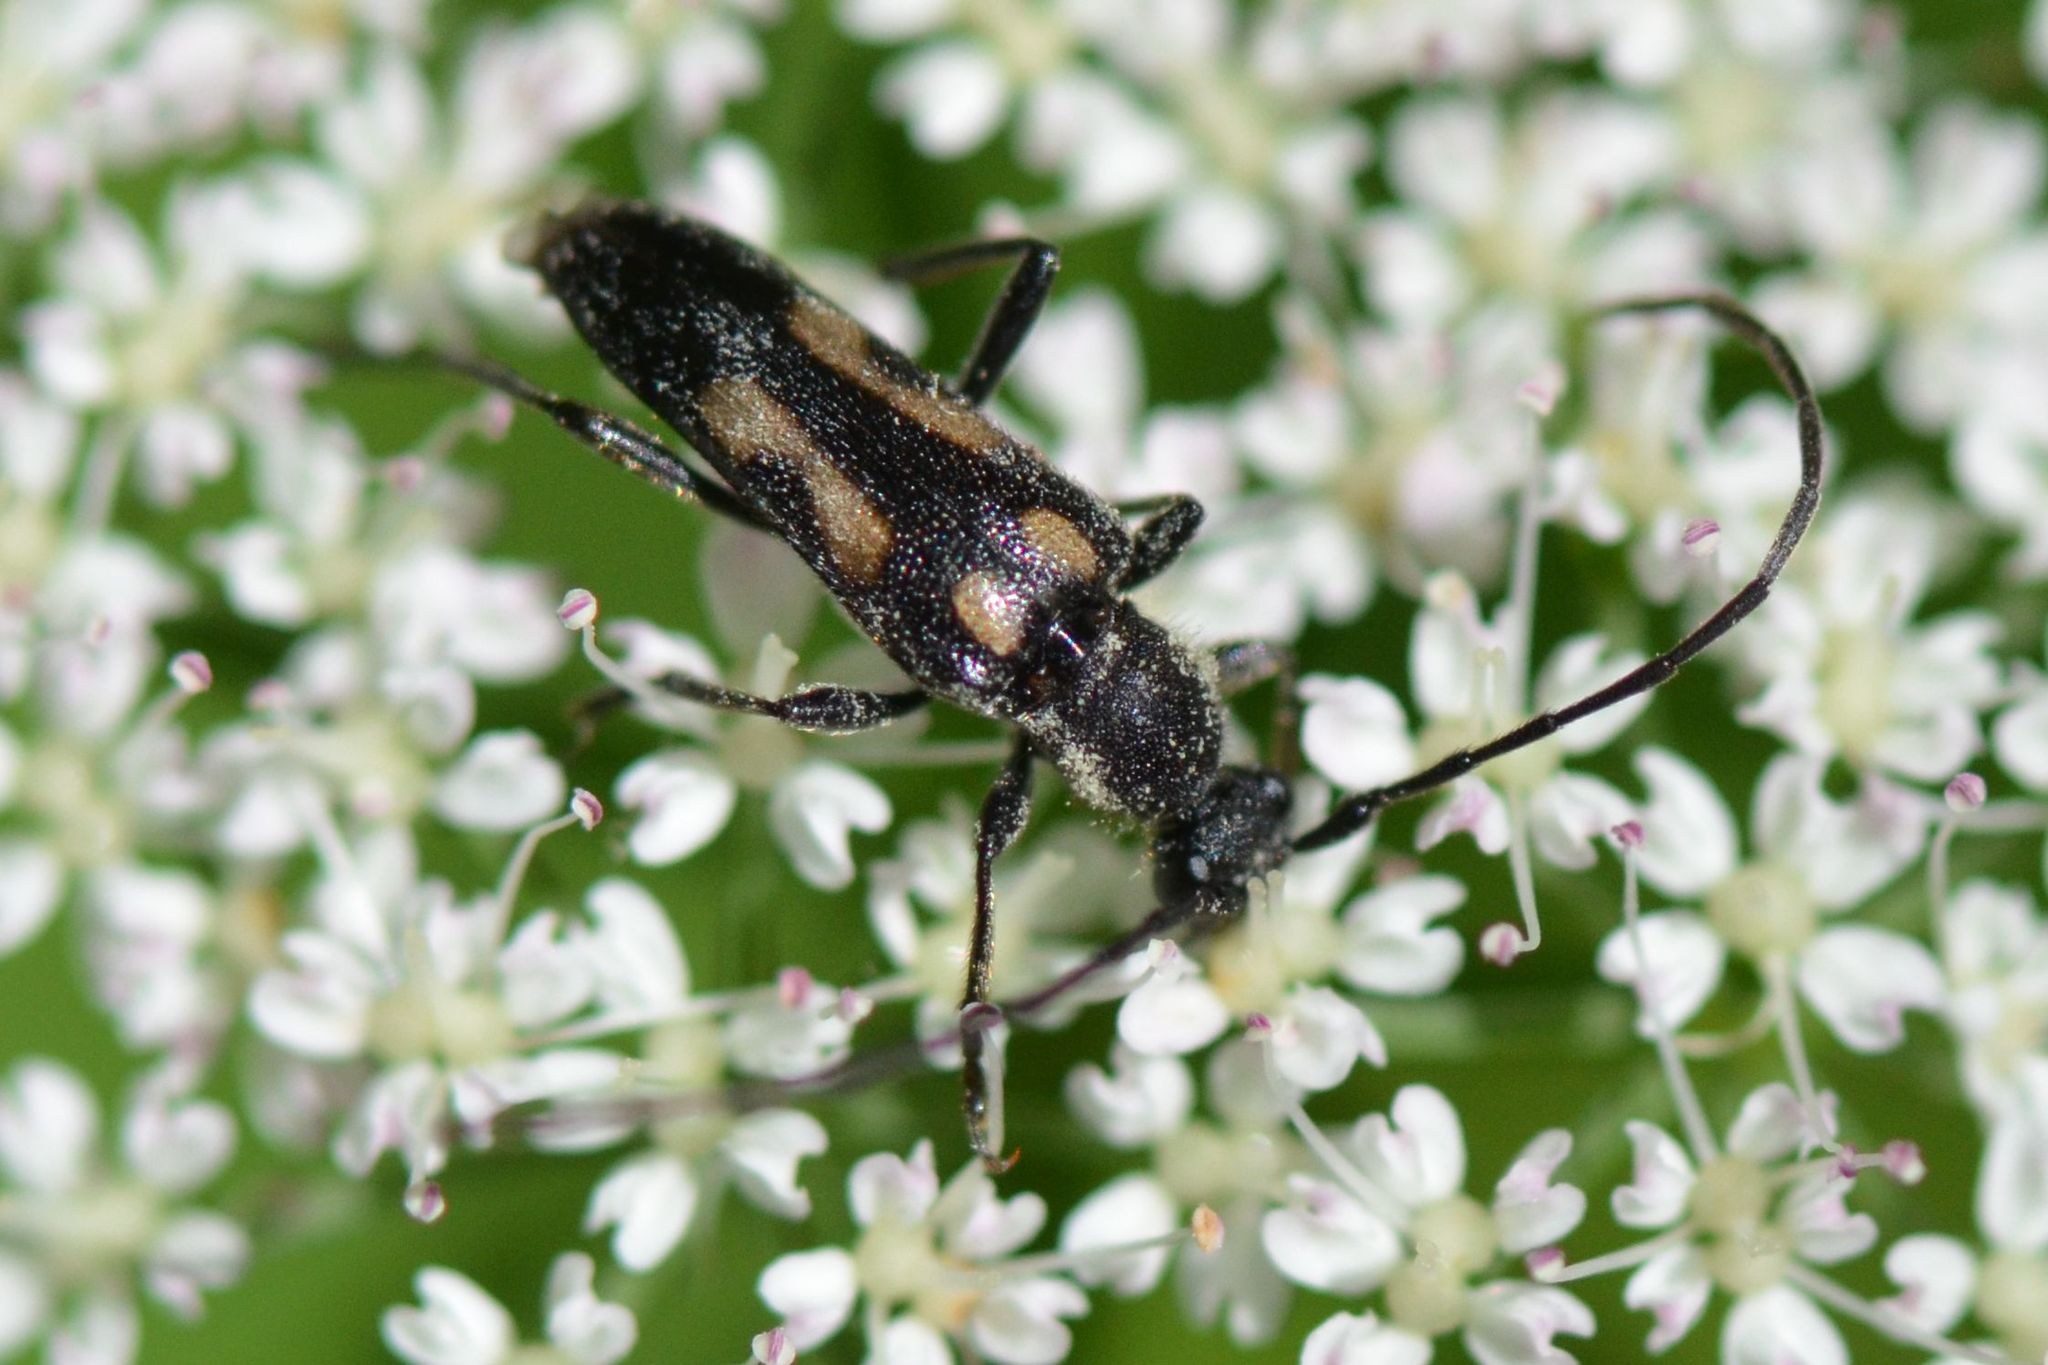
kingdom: Animalia
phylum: Arthropoda
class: Insecta
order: Coleoptera
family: Cerambycidae
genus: Anoplodera
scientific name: Anoplodera sexguttata
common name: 6 spotted longhorn
